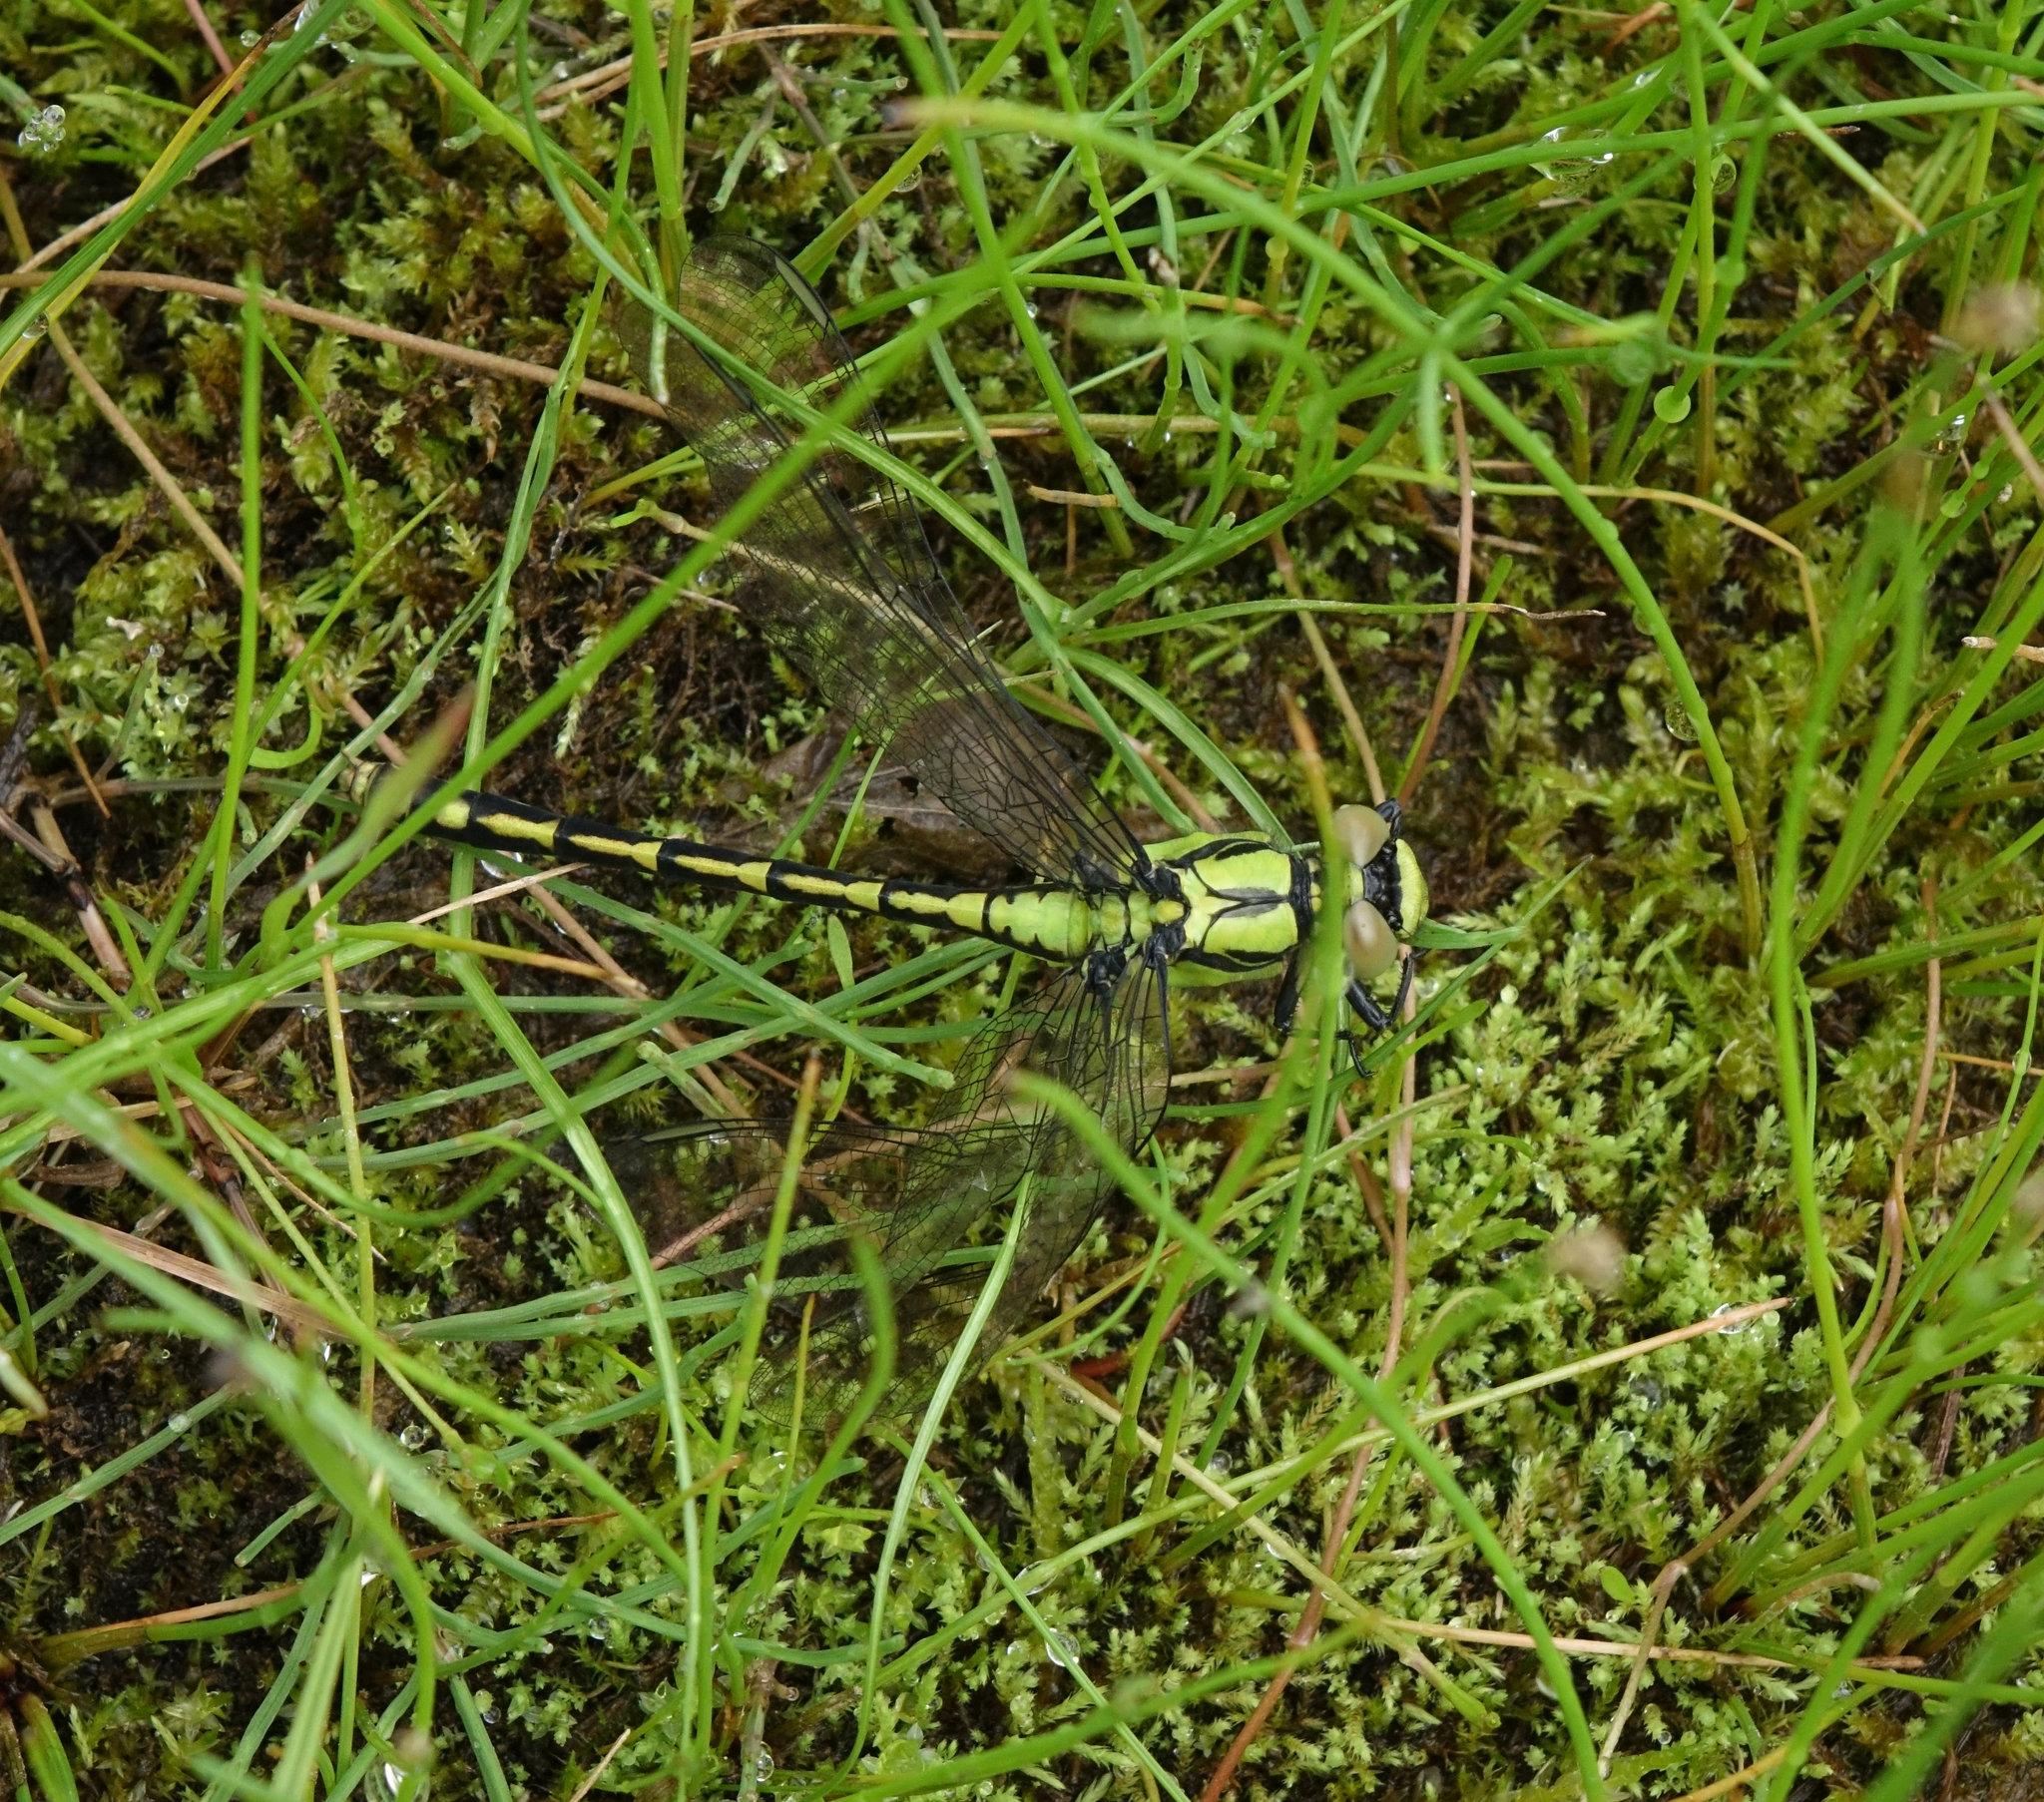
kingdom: Animalia
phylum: Arthropoda
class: Insecta
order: Odonata
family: Gomphidae
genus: Ophiogomphus
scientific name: Ophiogomphus obscurus
